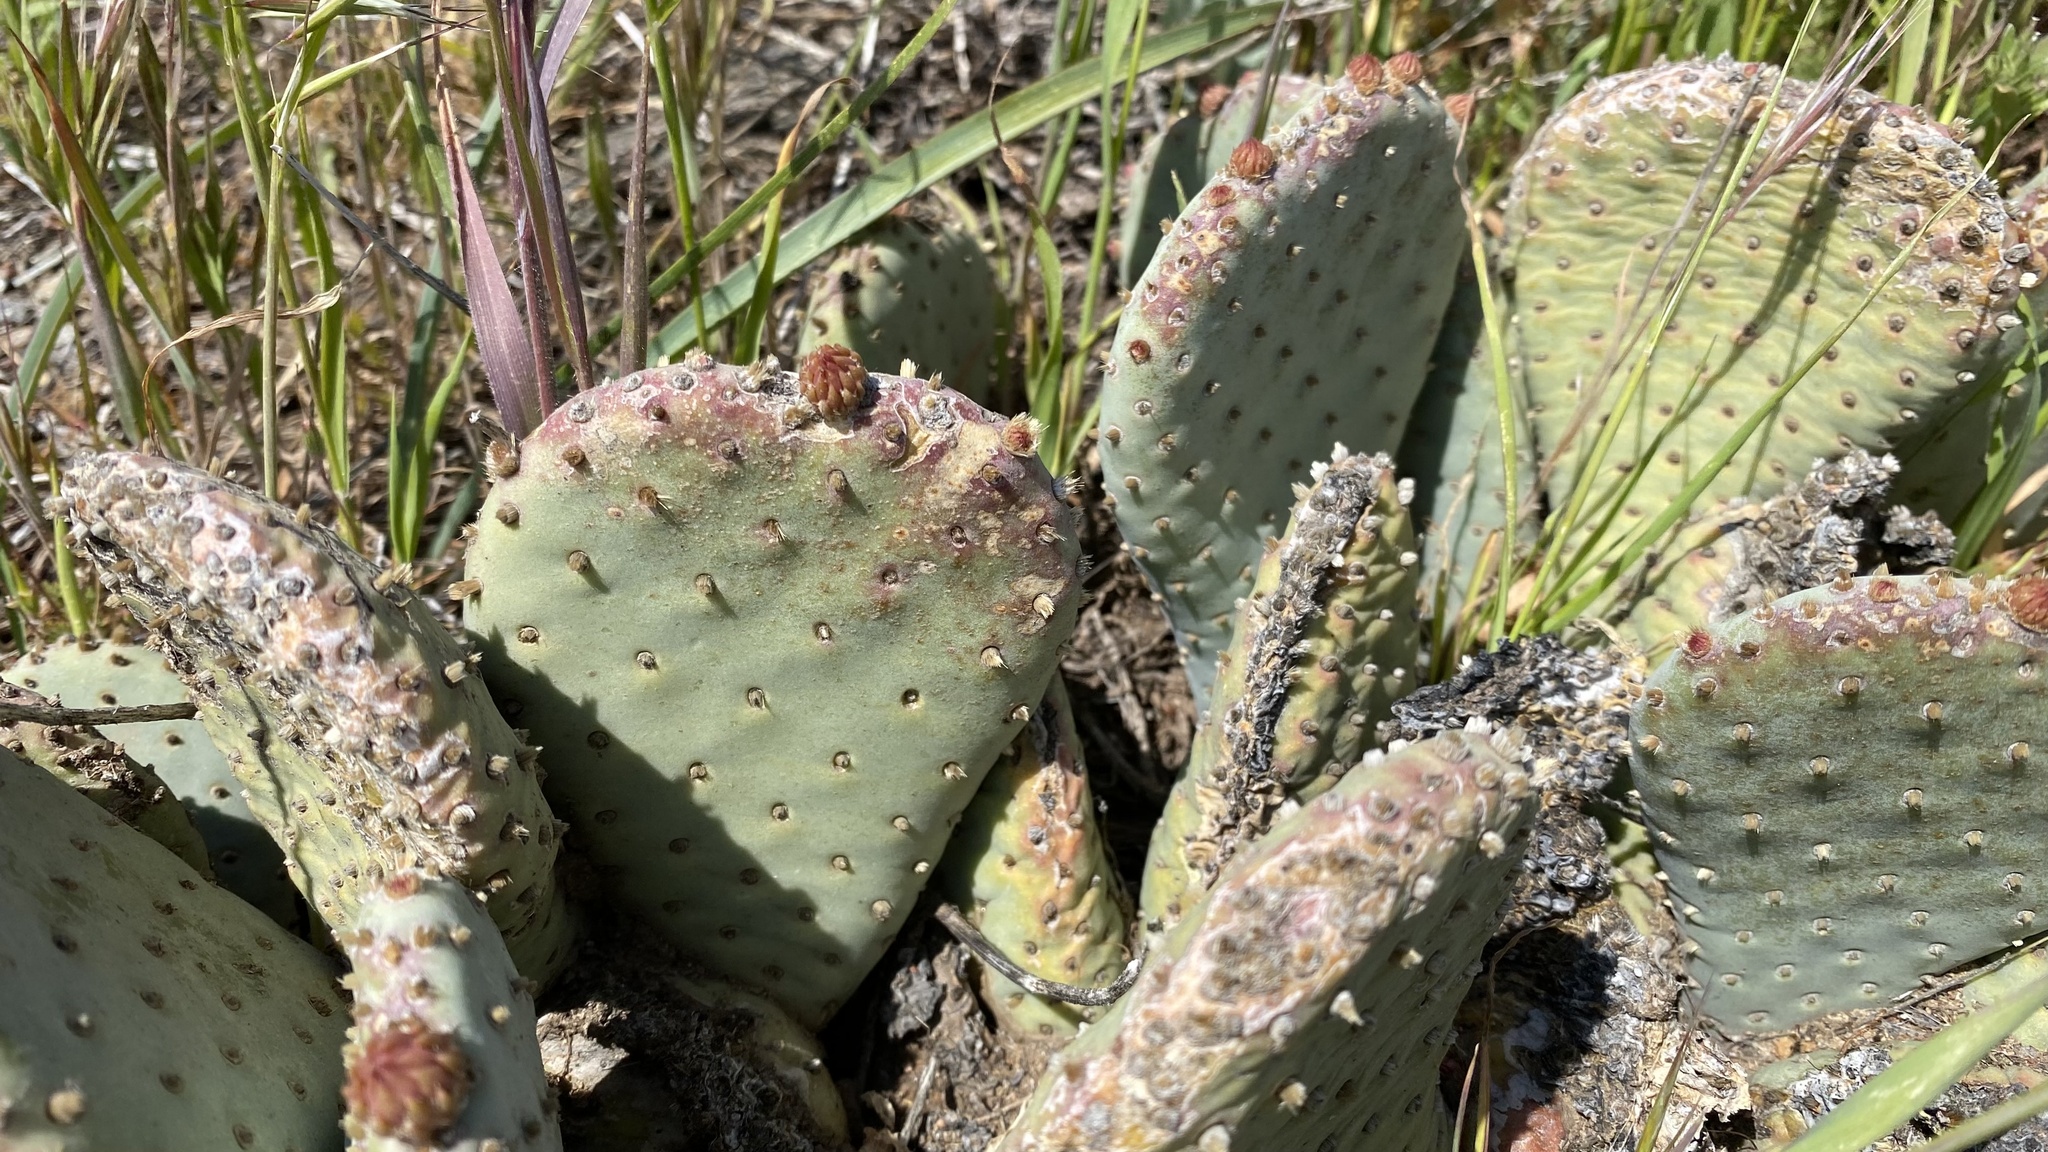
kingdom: Plantae
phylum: Tracheophyta
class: Magnoliopsida
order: Caryophyllales
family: Cactaceae
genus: Opuntia
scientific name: Opuntia basilaris
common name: Beavertail prickly-pear
